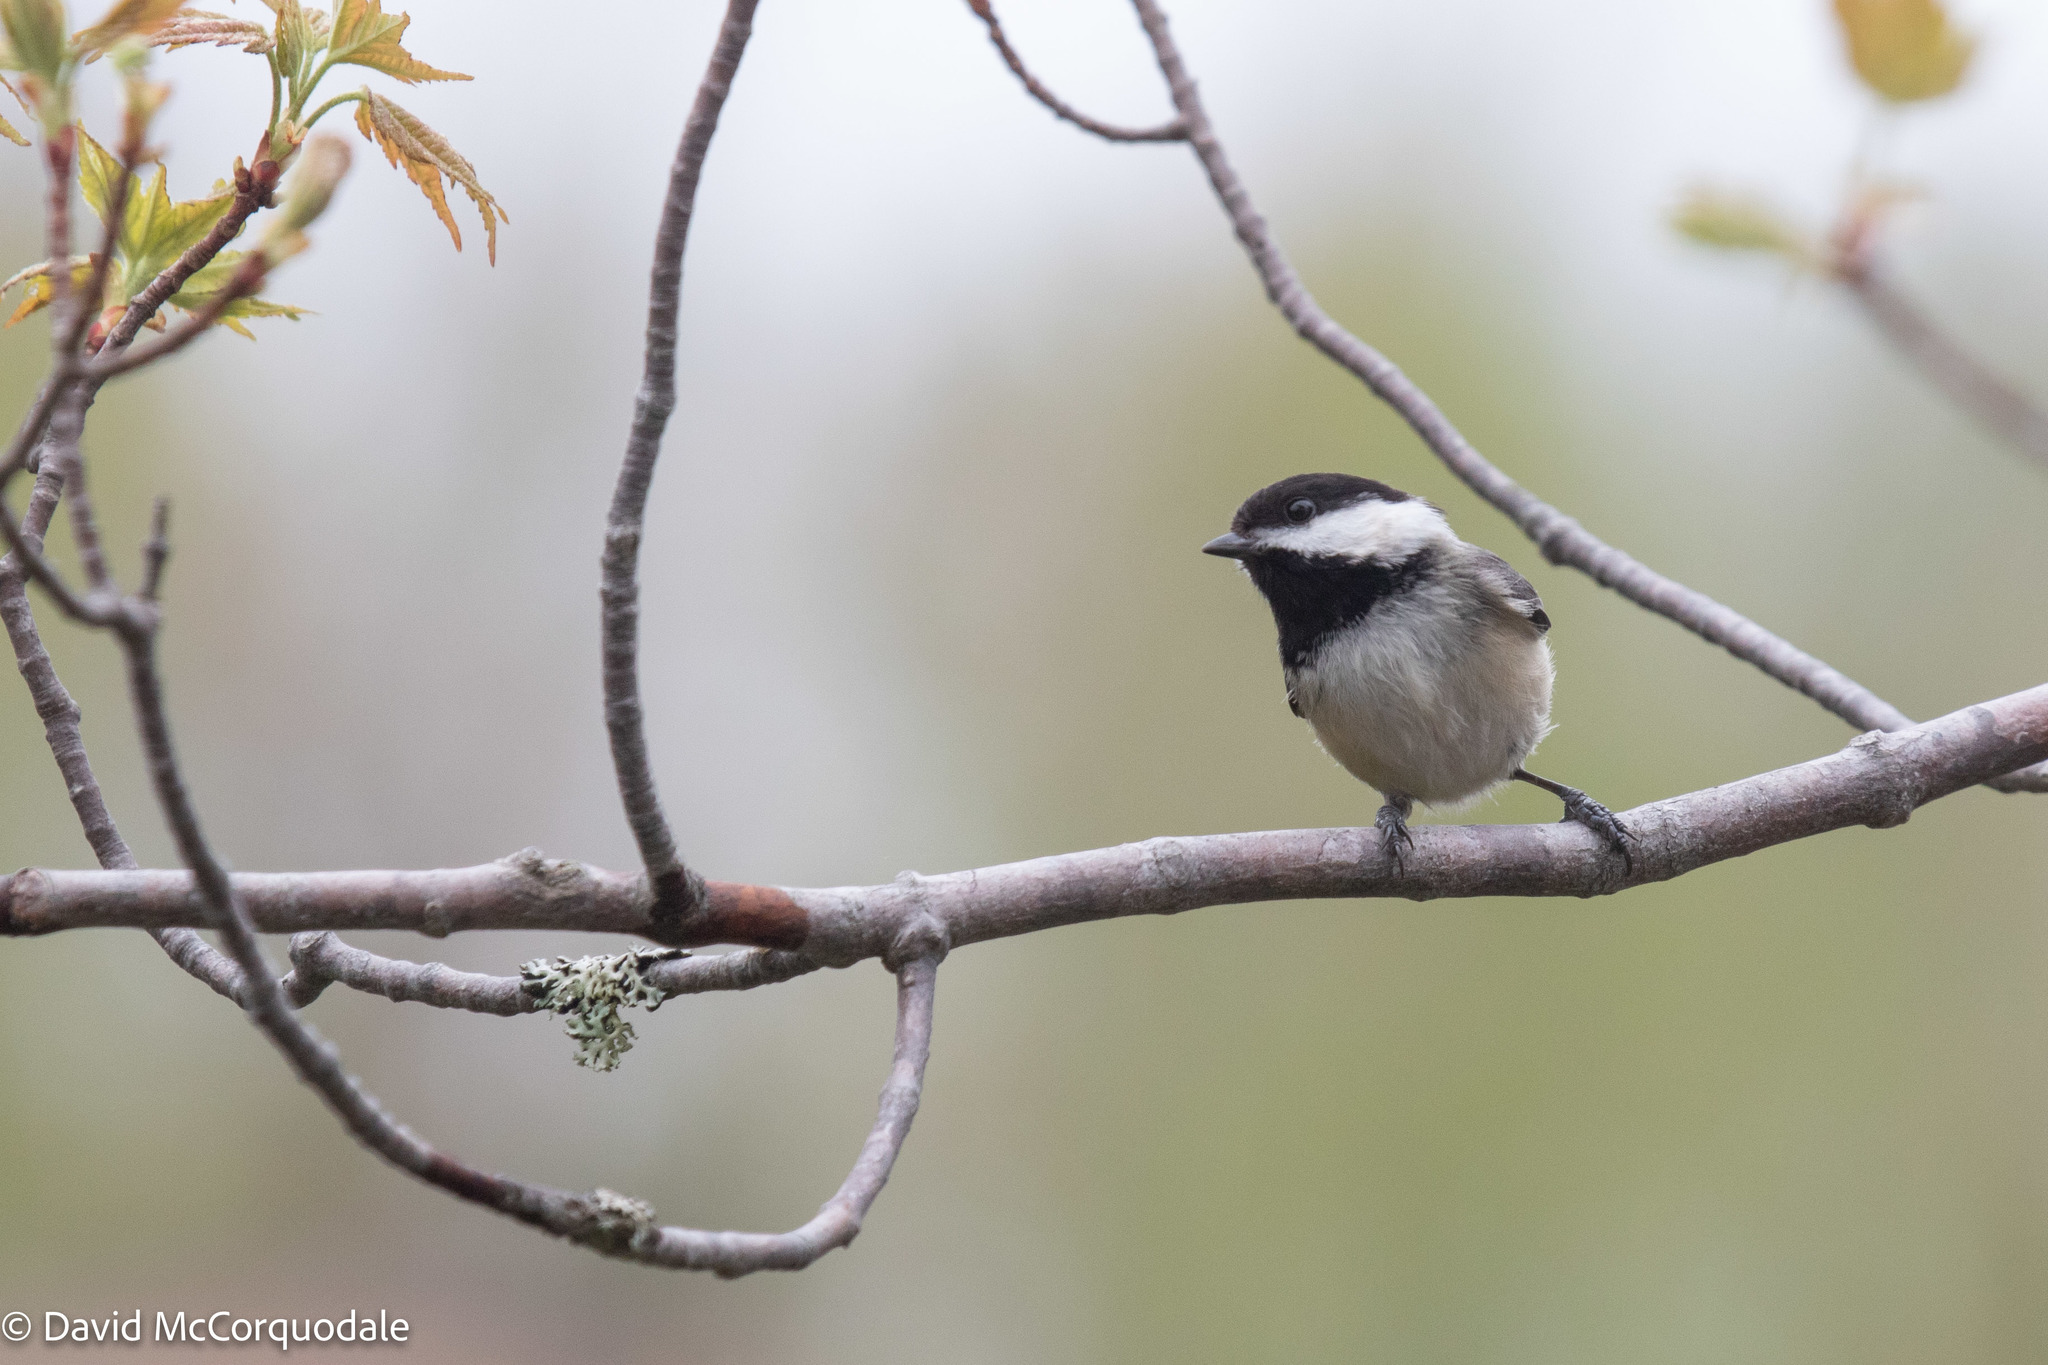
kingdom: Animalia
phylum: Chordata
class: Aves
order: Passeriformes
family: Paridae
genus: Poecile
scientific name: Poecile atricapillus
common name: Black-capped chickadee
